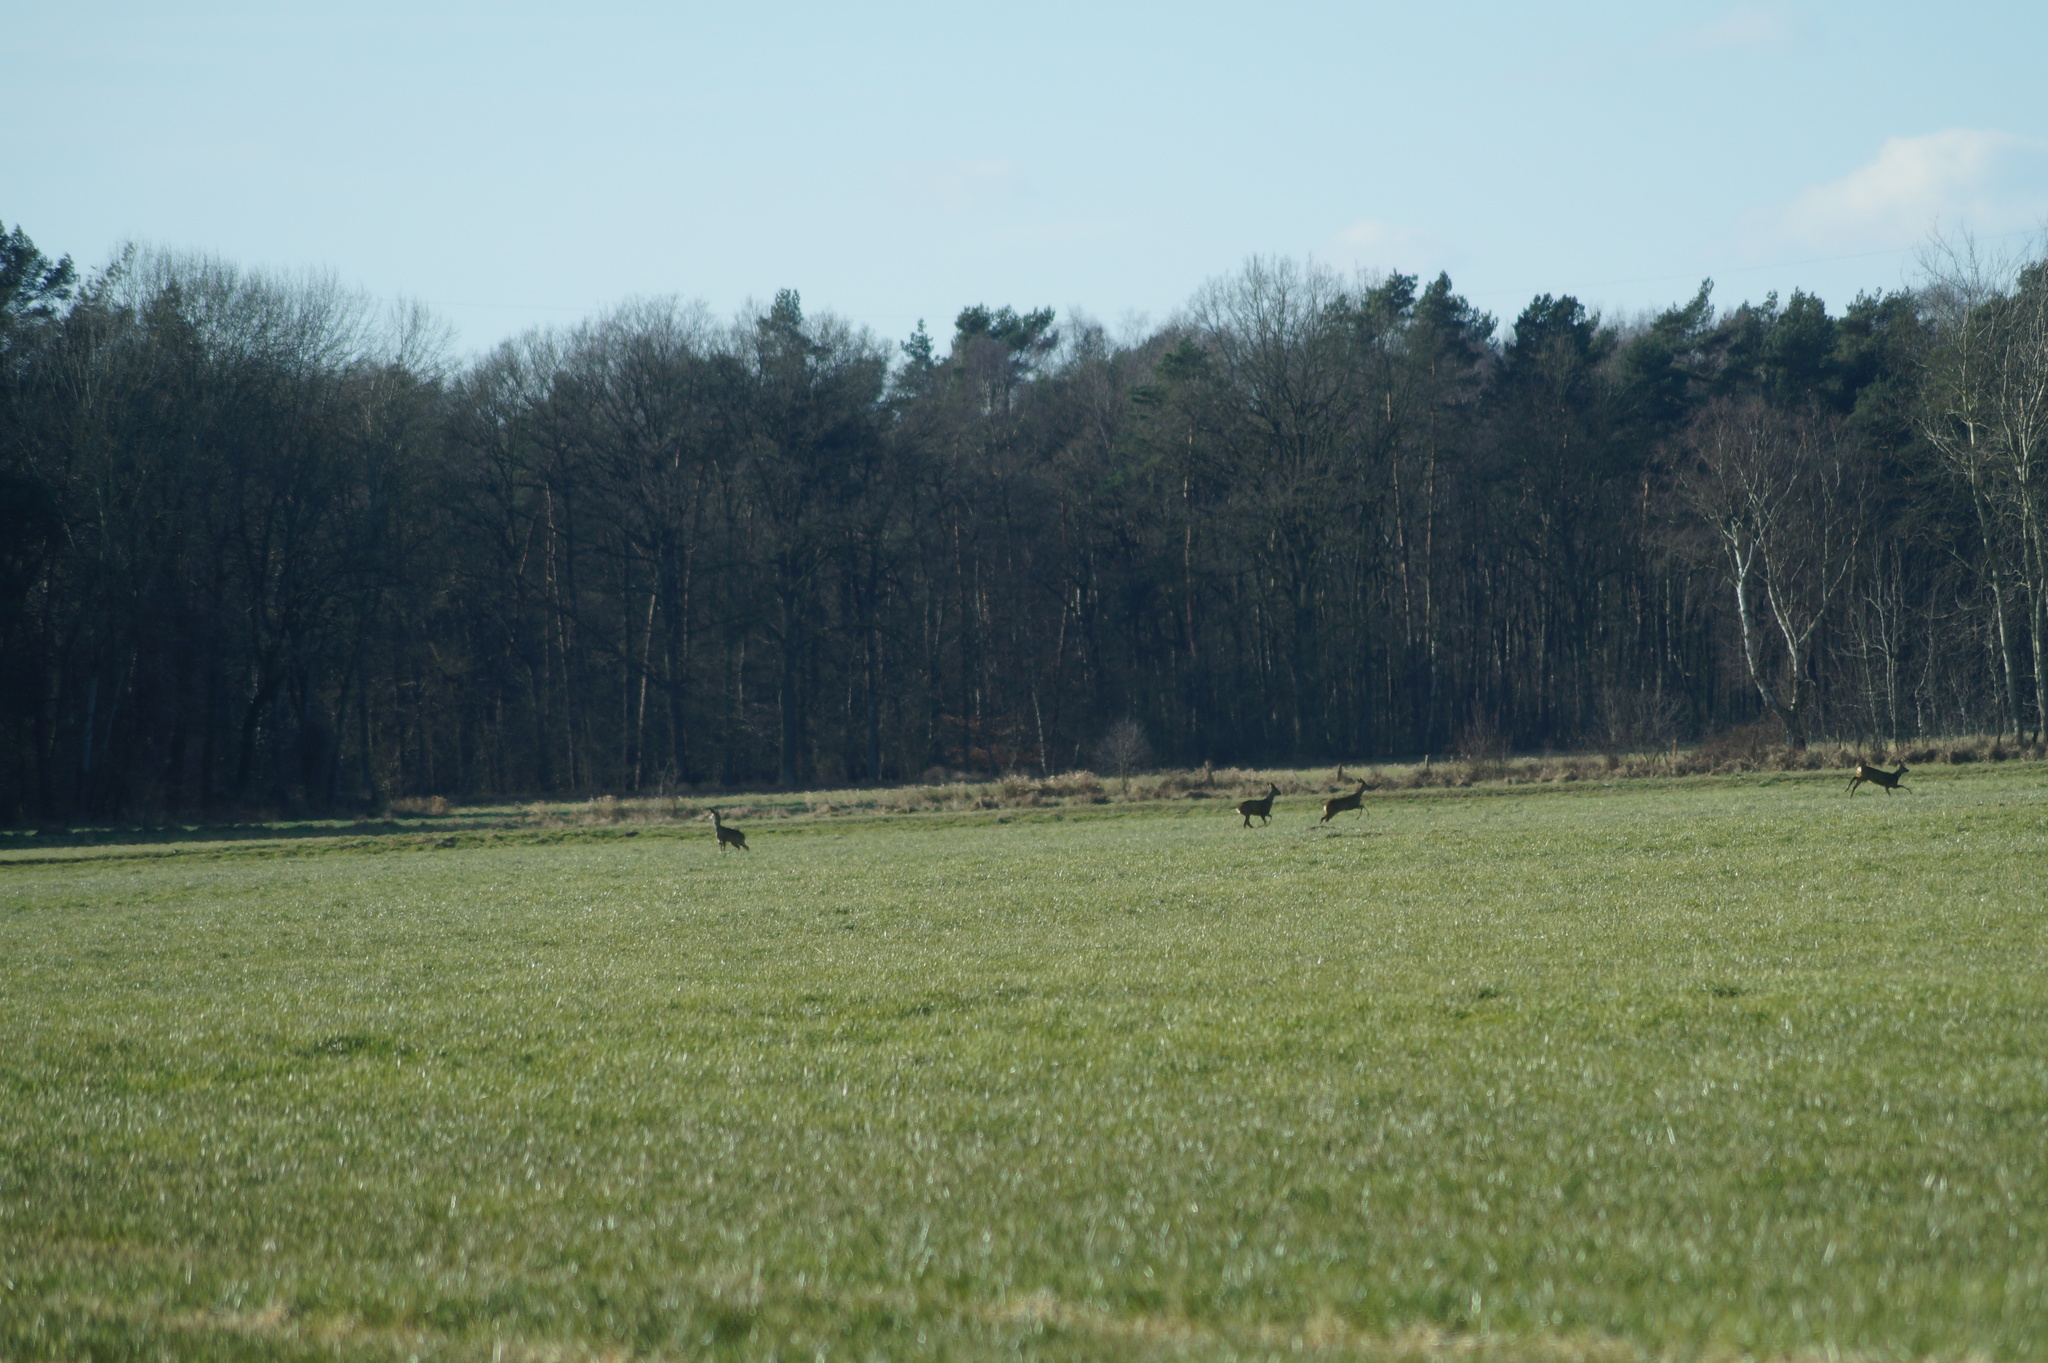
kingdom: Animalia
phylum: Chordata
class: Mammalia
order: Artiodactyla
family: Cervidae
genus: Capreolus
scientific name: Capreolus capreolus
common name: Western roe deer
